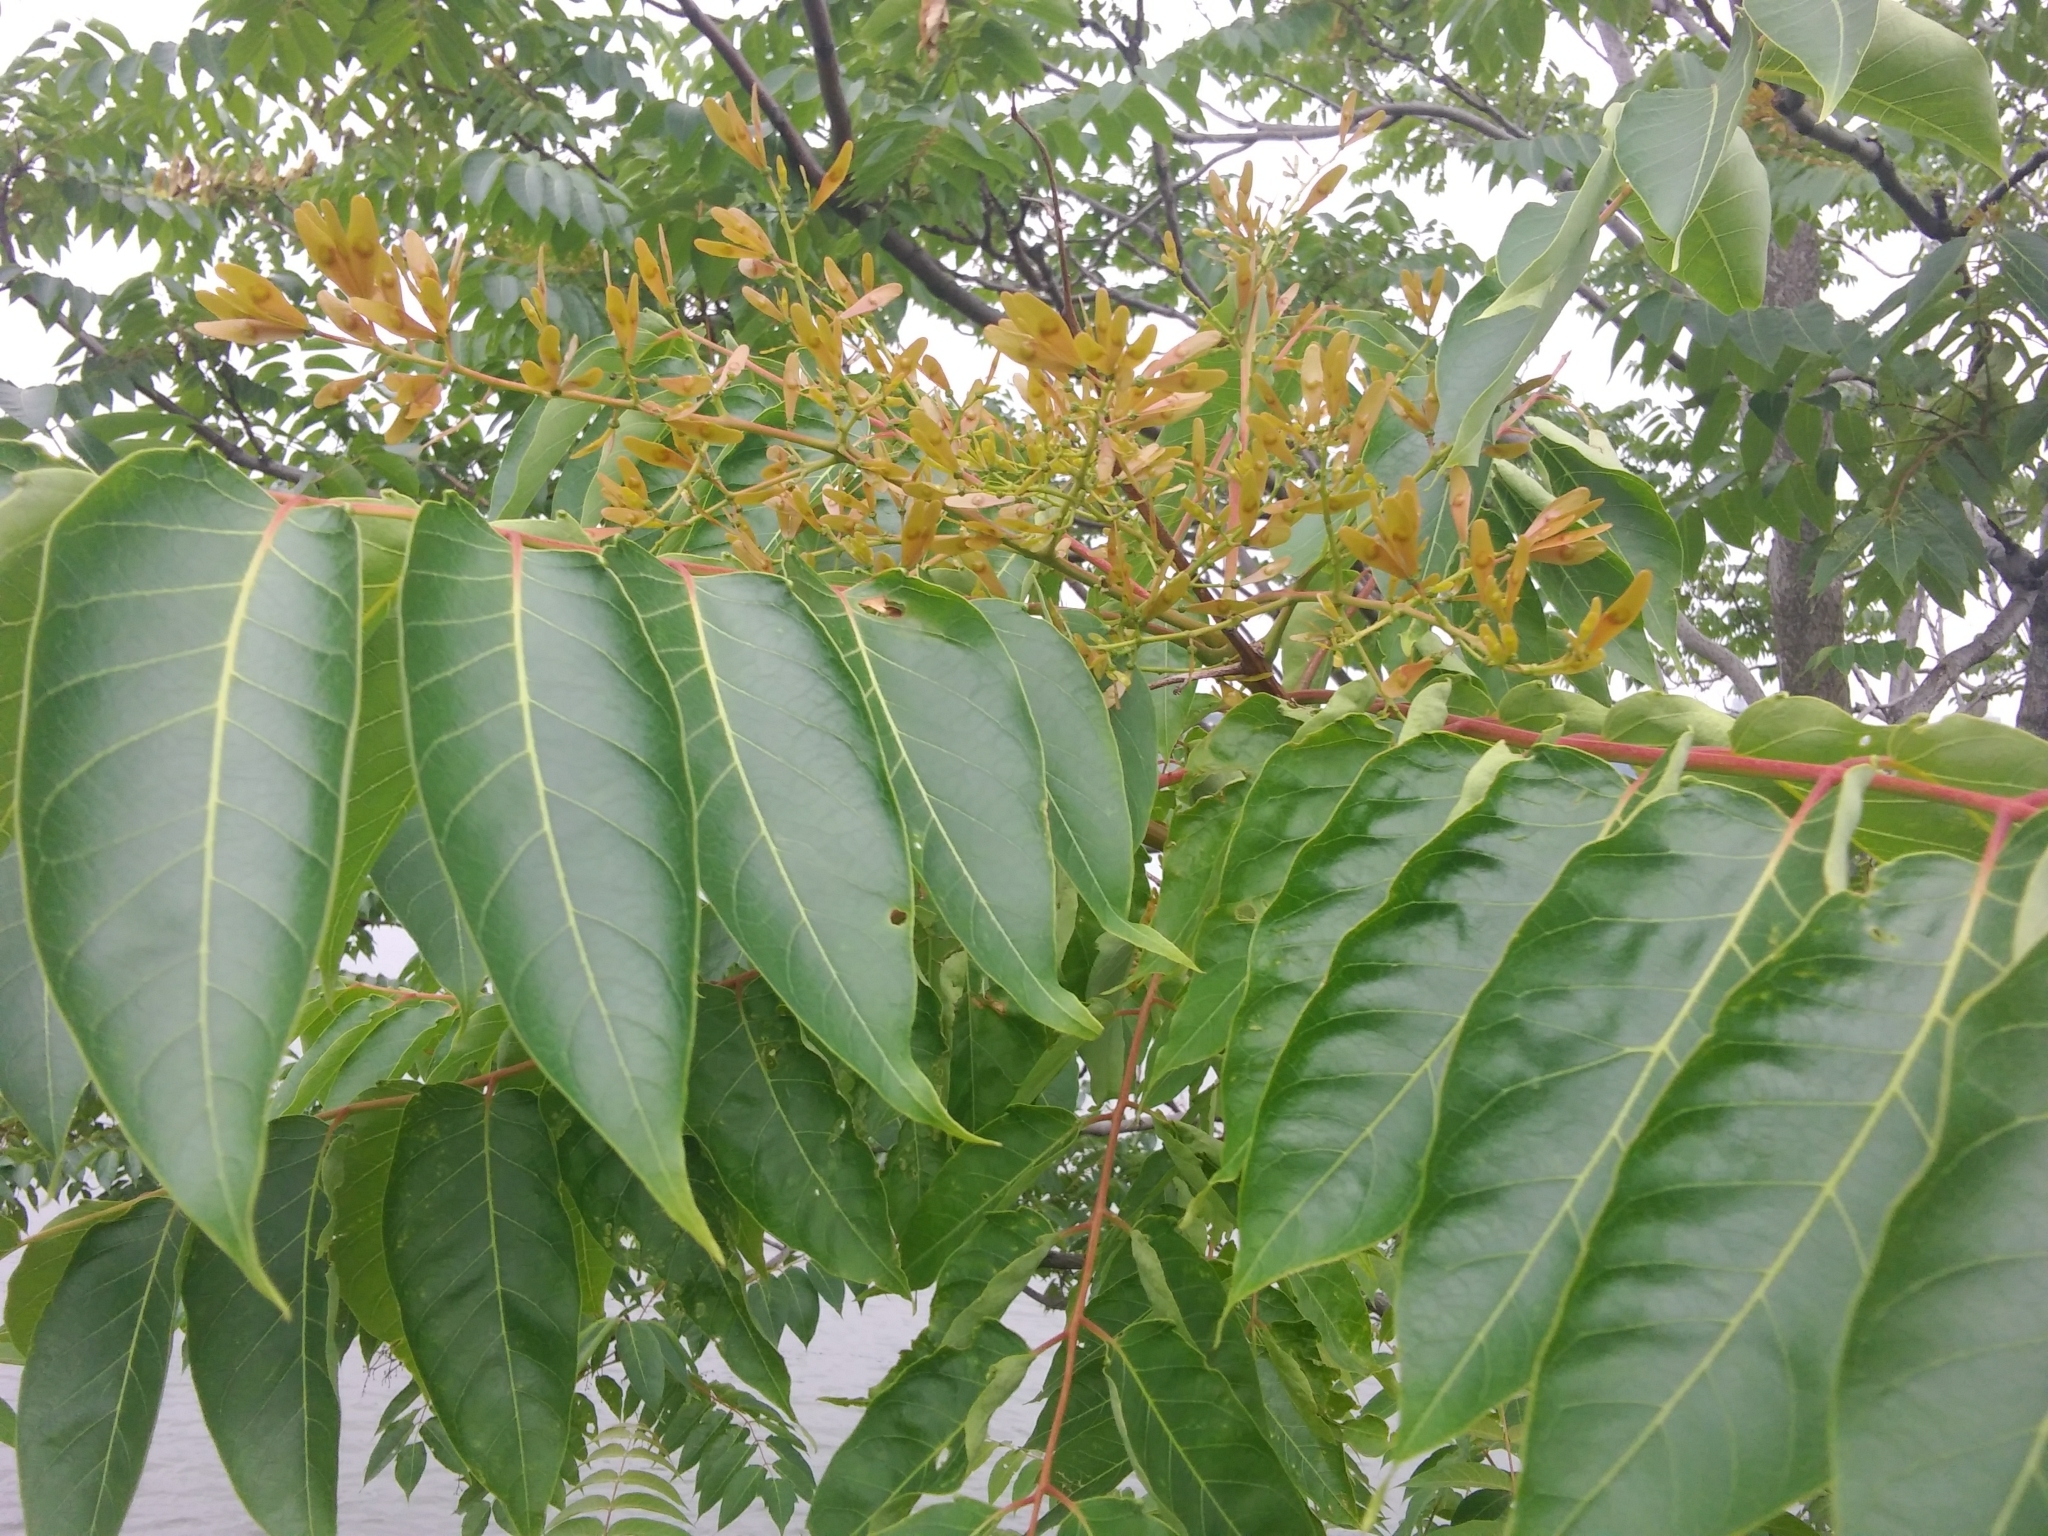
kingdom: Plantae
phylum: Tracheophyta
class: Magnoliopsida
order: Sapindales
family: Simaroubaceae
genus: Ailanthus
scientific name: Ailanthus altissima
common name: Tree-of-heaven
